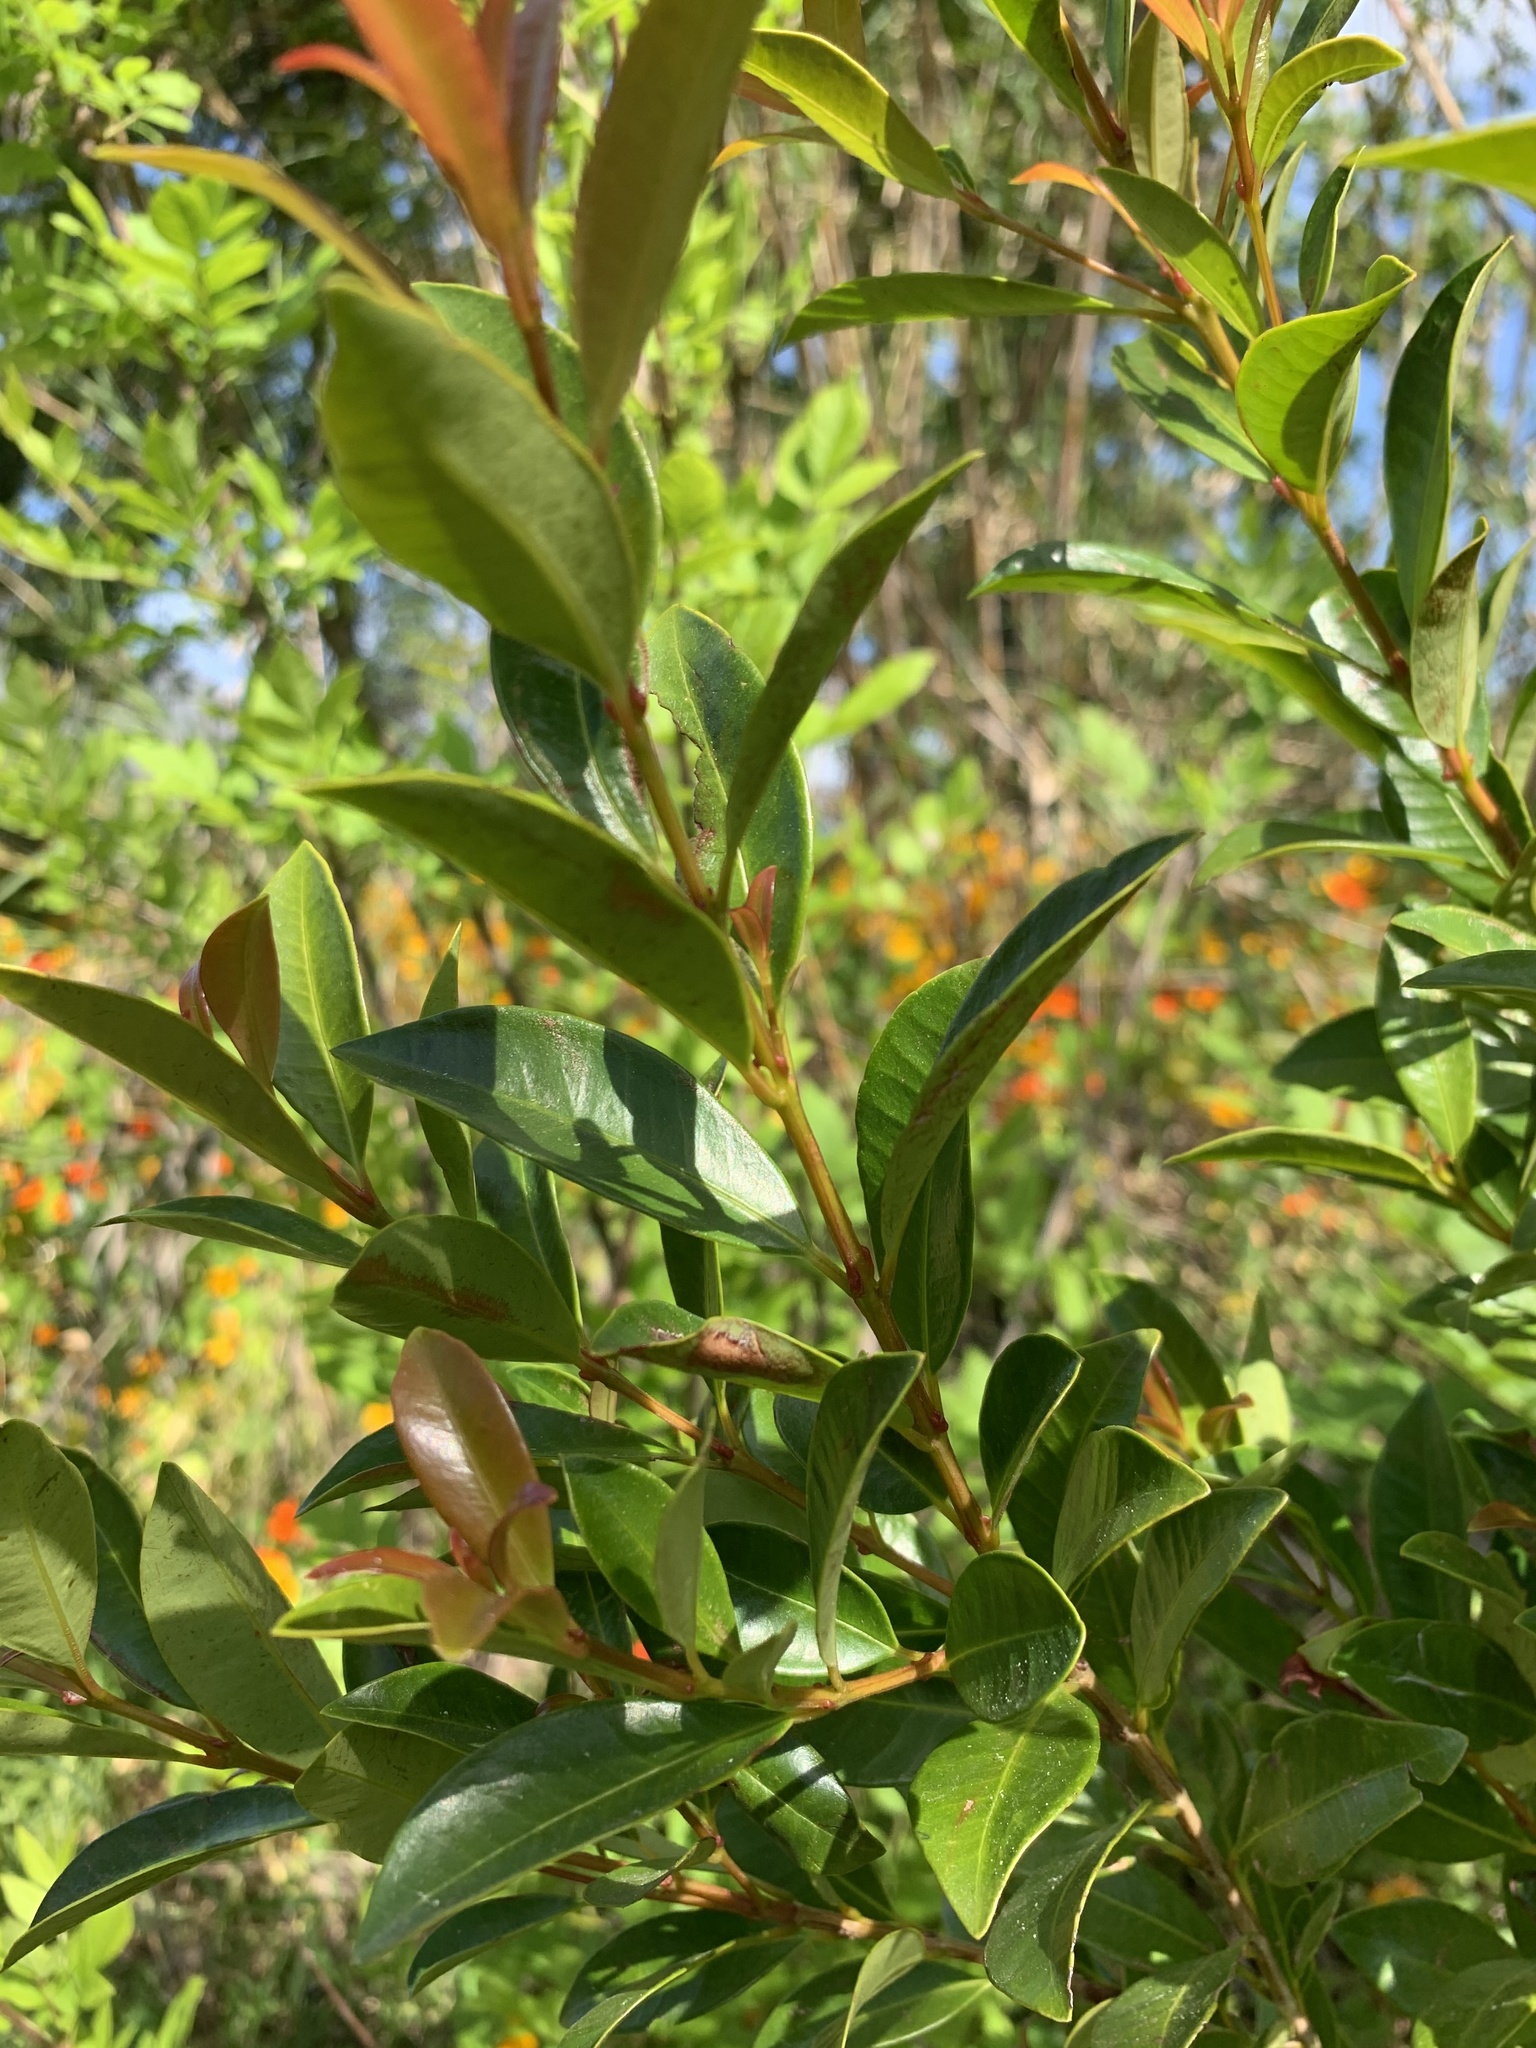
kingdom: Plantae
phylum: Tracheophyta
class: Magnoliopsida
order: Myrtales
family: Myrtaceae
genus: Syzygium
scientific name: Syzygium australe
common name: Australian brush-cherry
